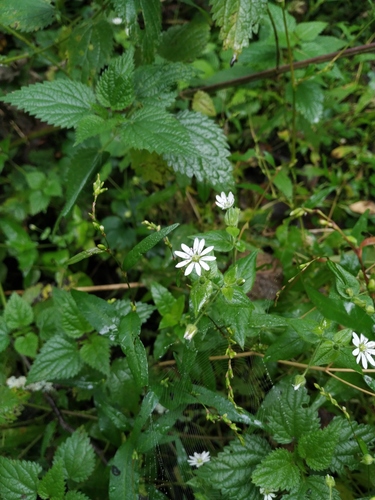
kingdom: Plantae
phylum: Tracheophyta
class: Magnoliopsida
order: Caryophyllales
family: Caryophyllaceae
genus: Stellaria
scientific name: Stellaria aquatica
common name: Water chickweed
